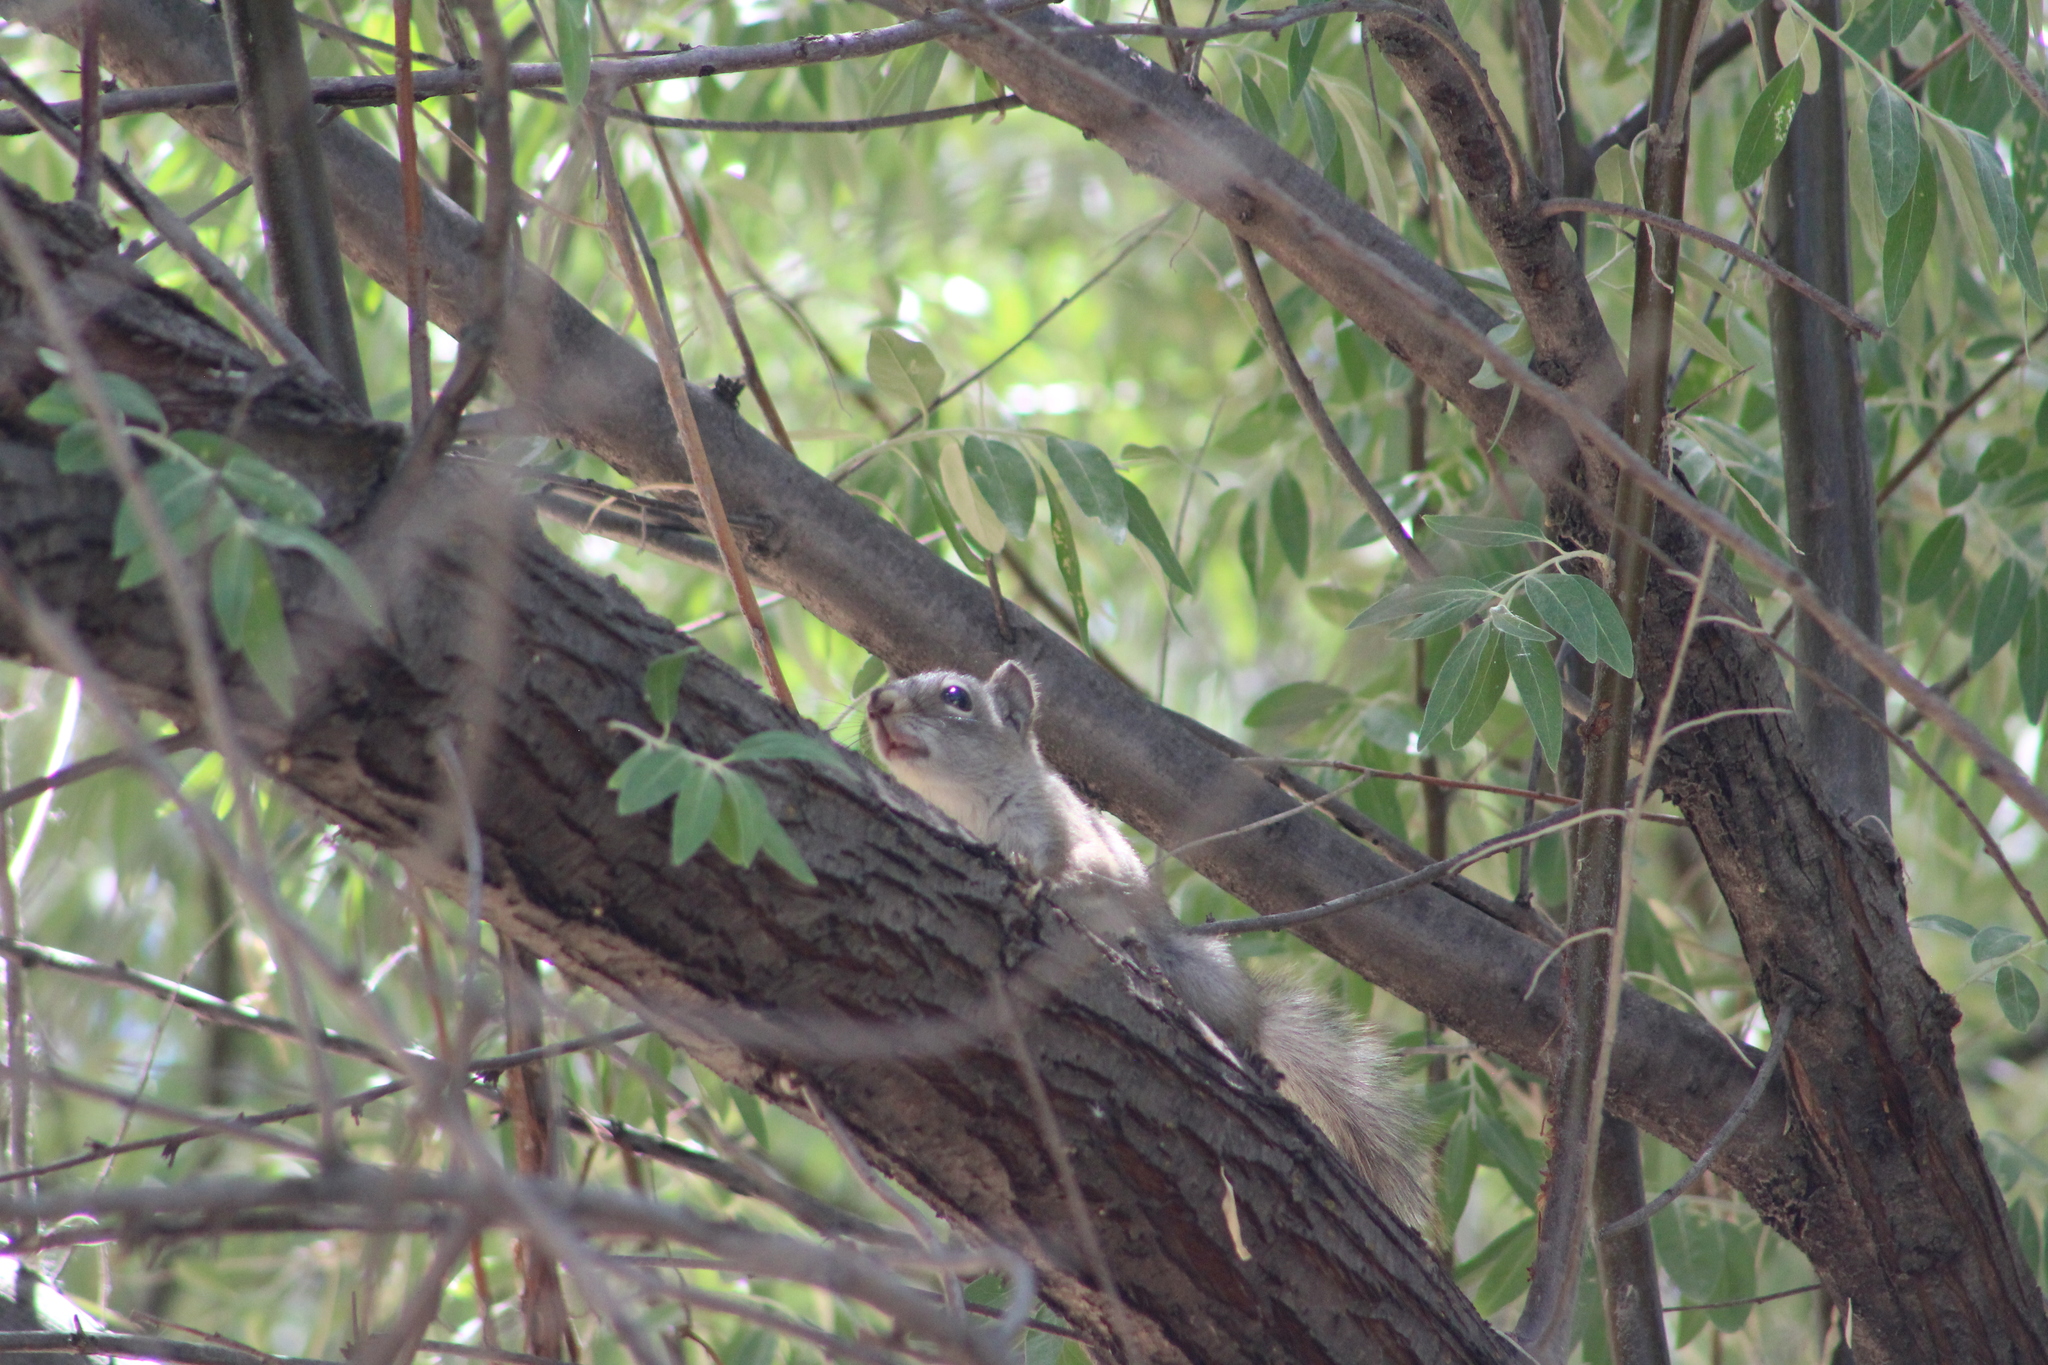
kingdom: Animalia
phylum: Chordata
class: Mammalia
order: Rodentia
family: Sciuridae
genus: Tamiasciurus
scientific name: Tamiasciurus hudsonicus
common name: Red squirrel
